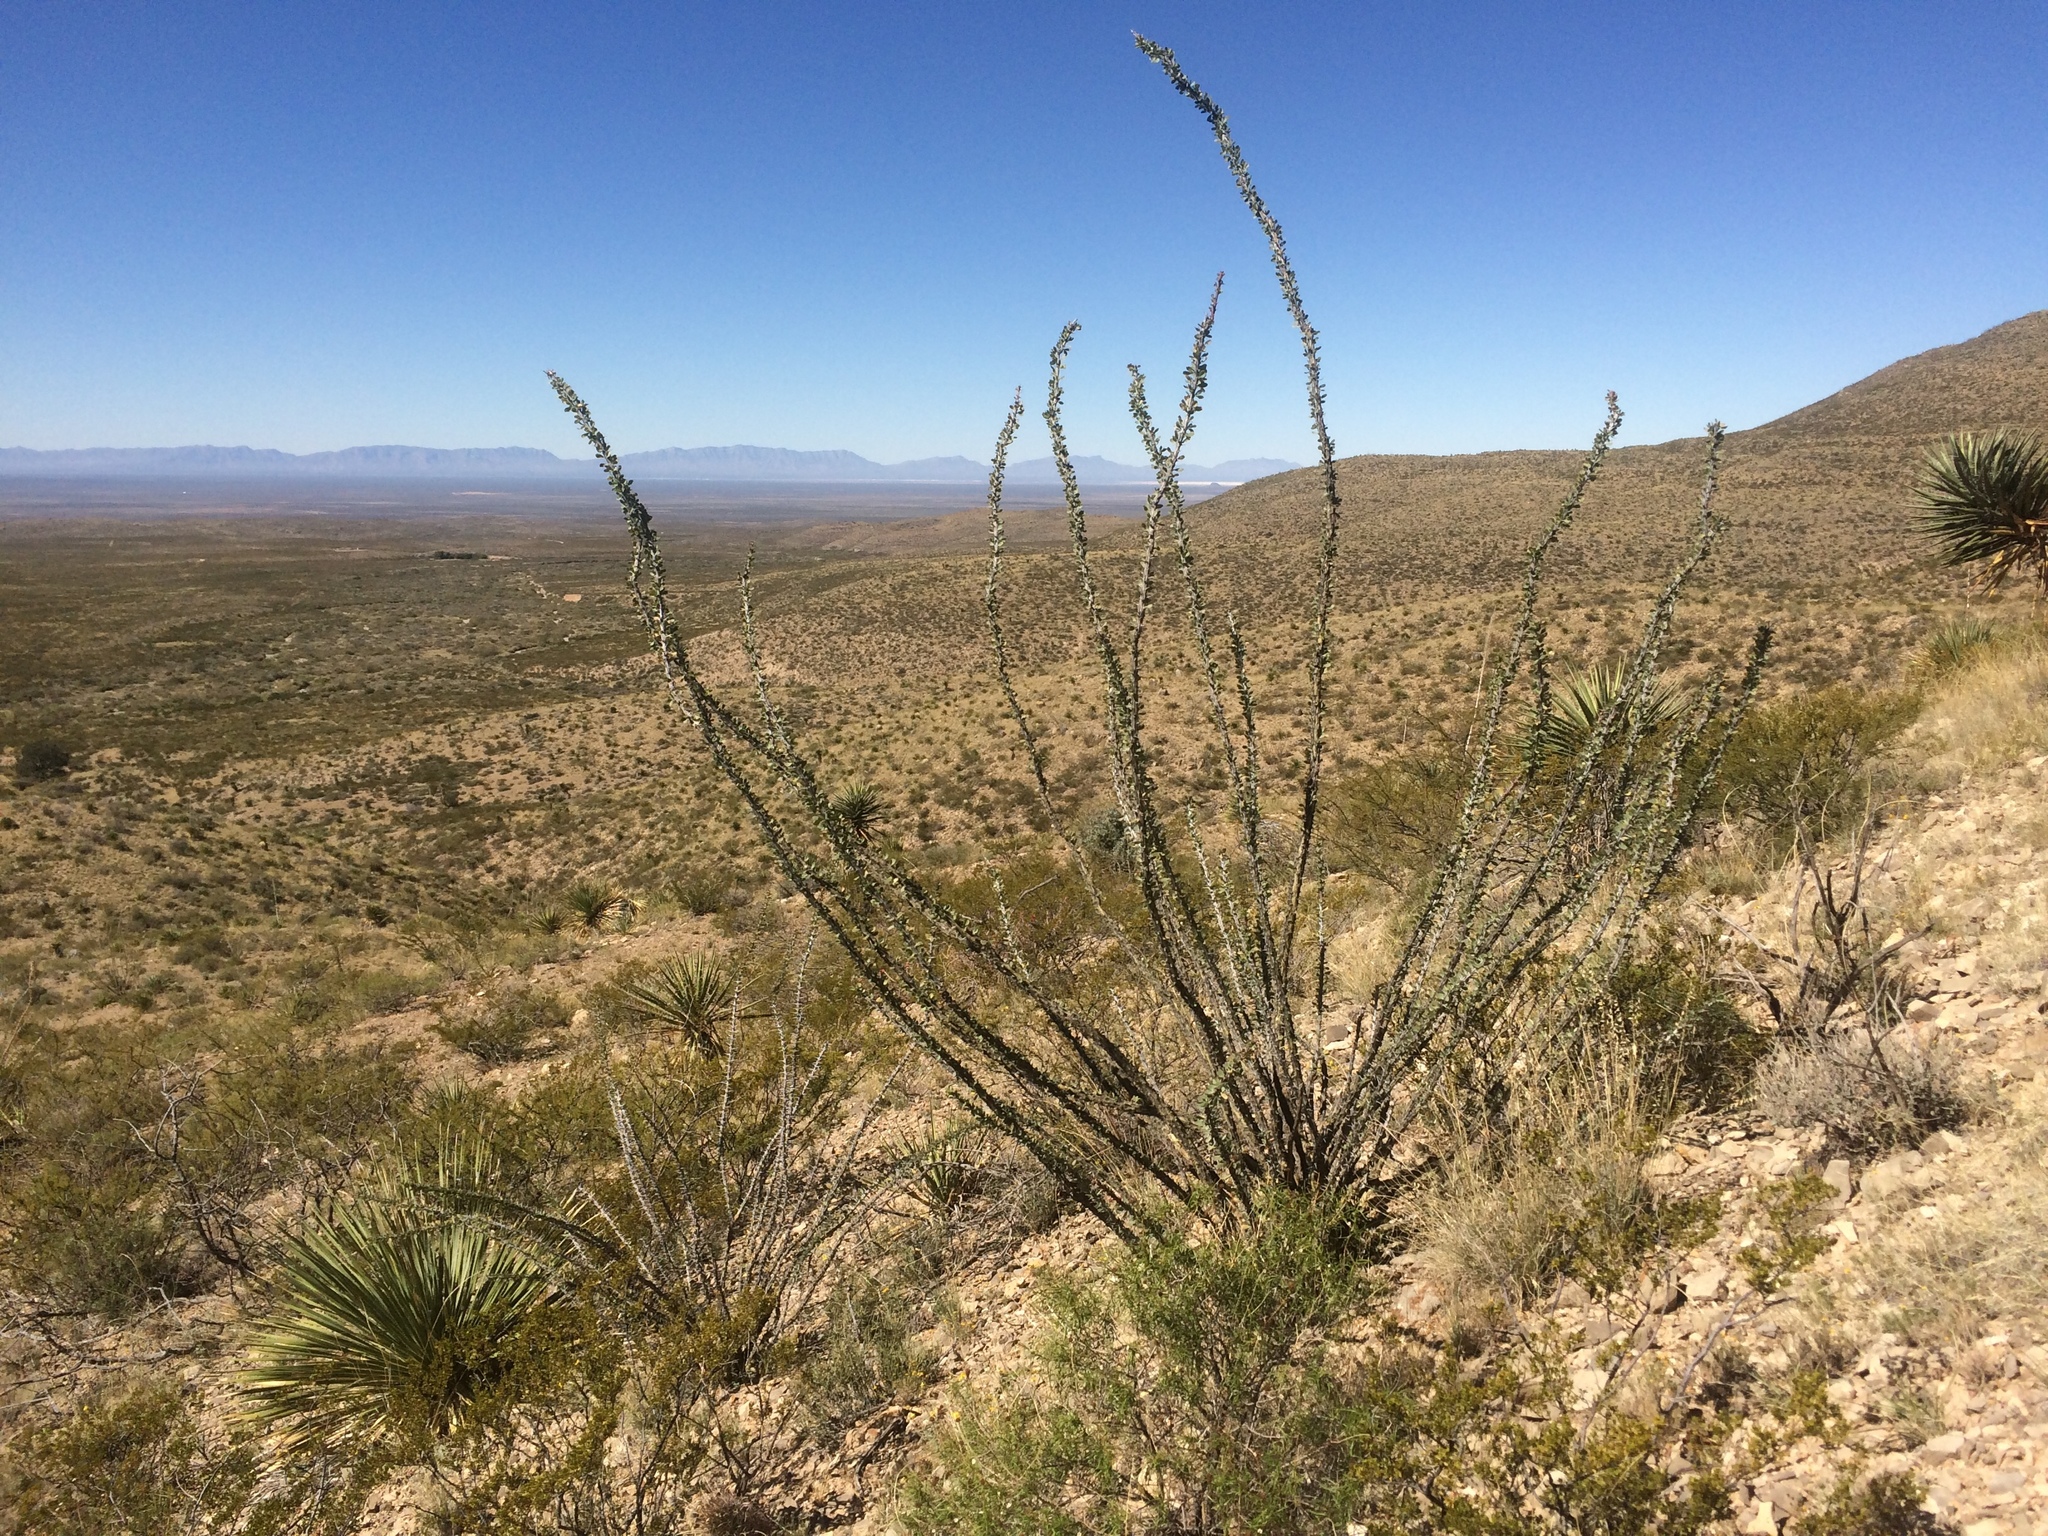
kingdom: Plantae
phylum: Tracheophyta
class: Magnoliopsida
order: Ericales
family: Fouquieriaceae
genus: Fouquieria
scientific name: Fouquieria splendens
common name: Vine-cactus
